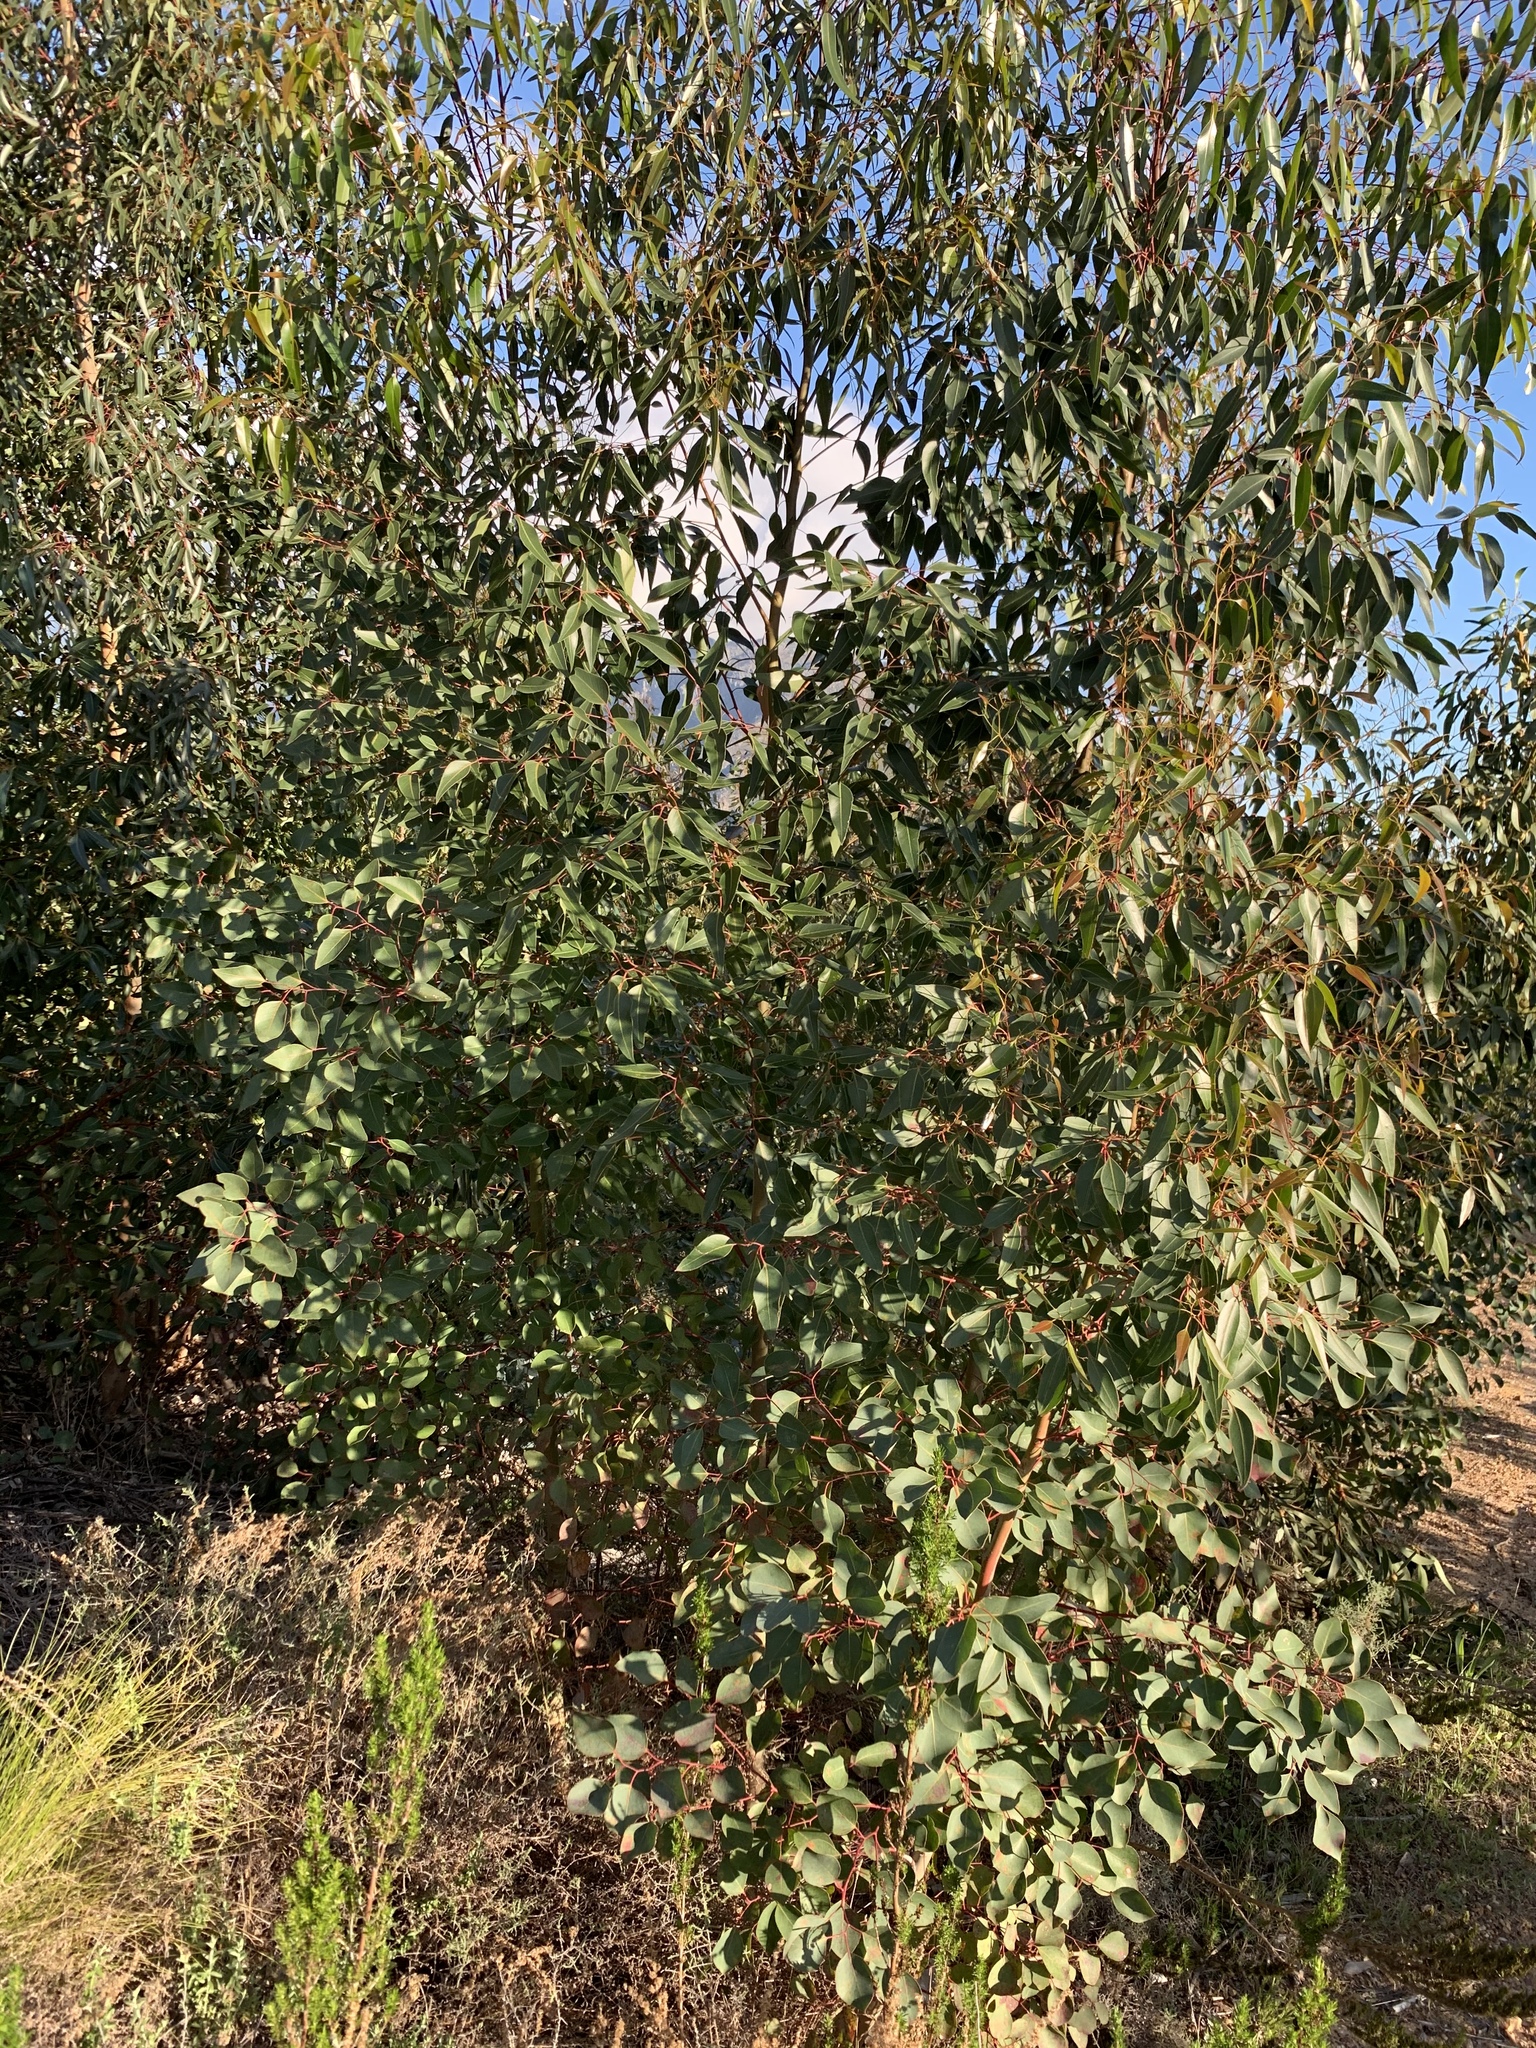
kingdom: Plantae
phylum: Tracheophyta
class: Magnoliopsida
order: Myrtales
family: Myrtaceae
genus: Eucalyptus
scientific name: Eucalyptus cladocalyx
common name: Sugargum
